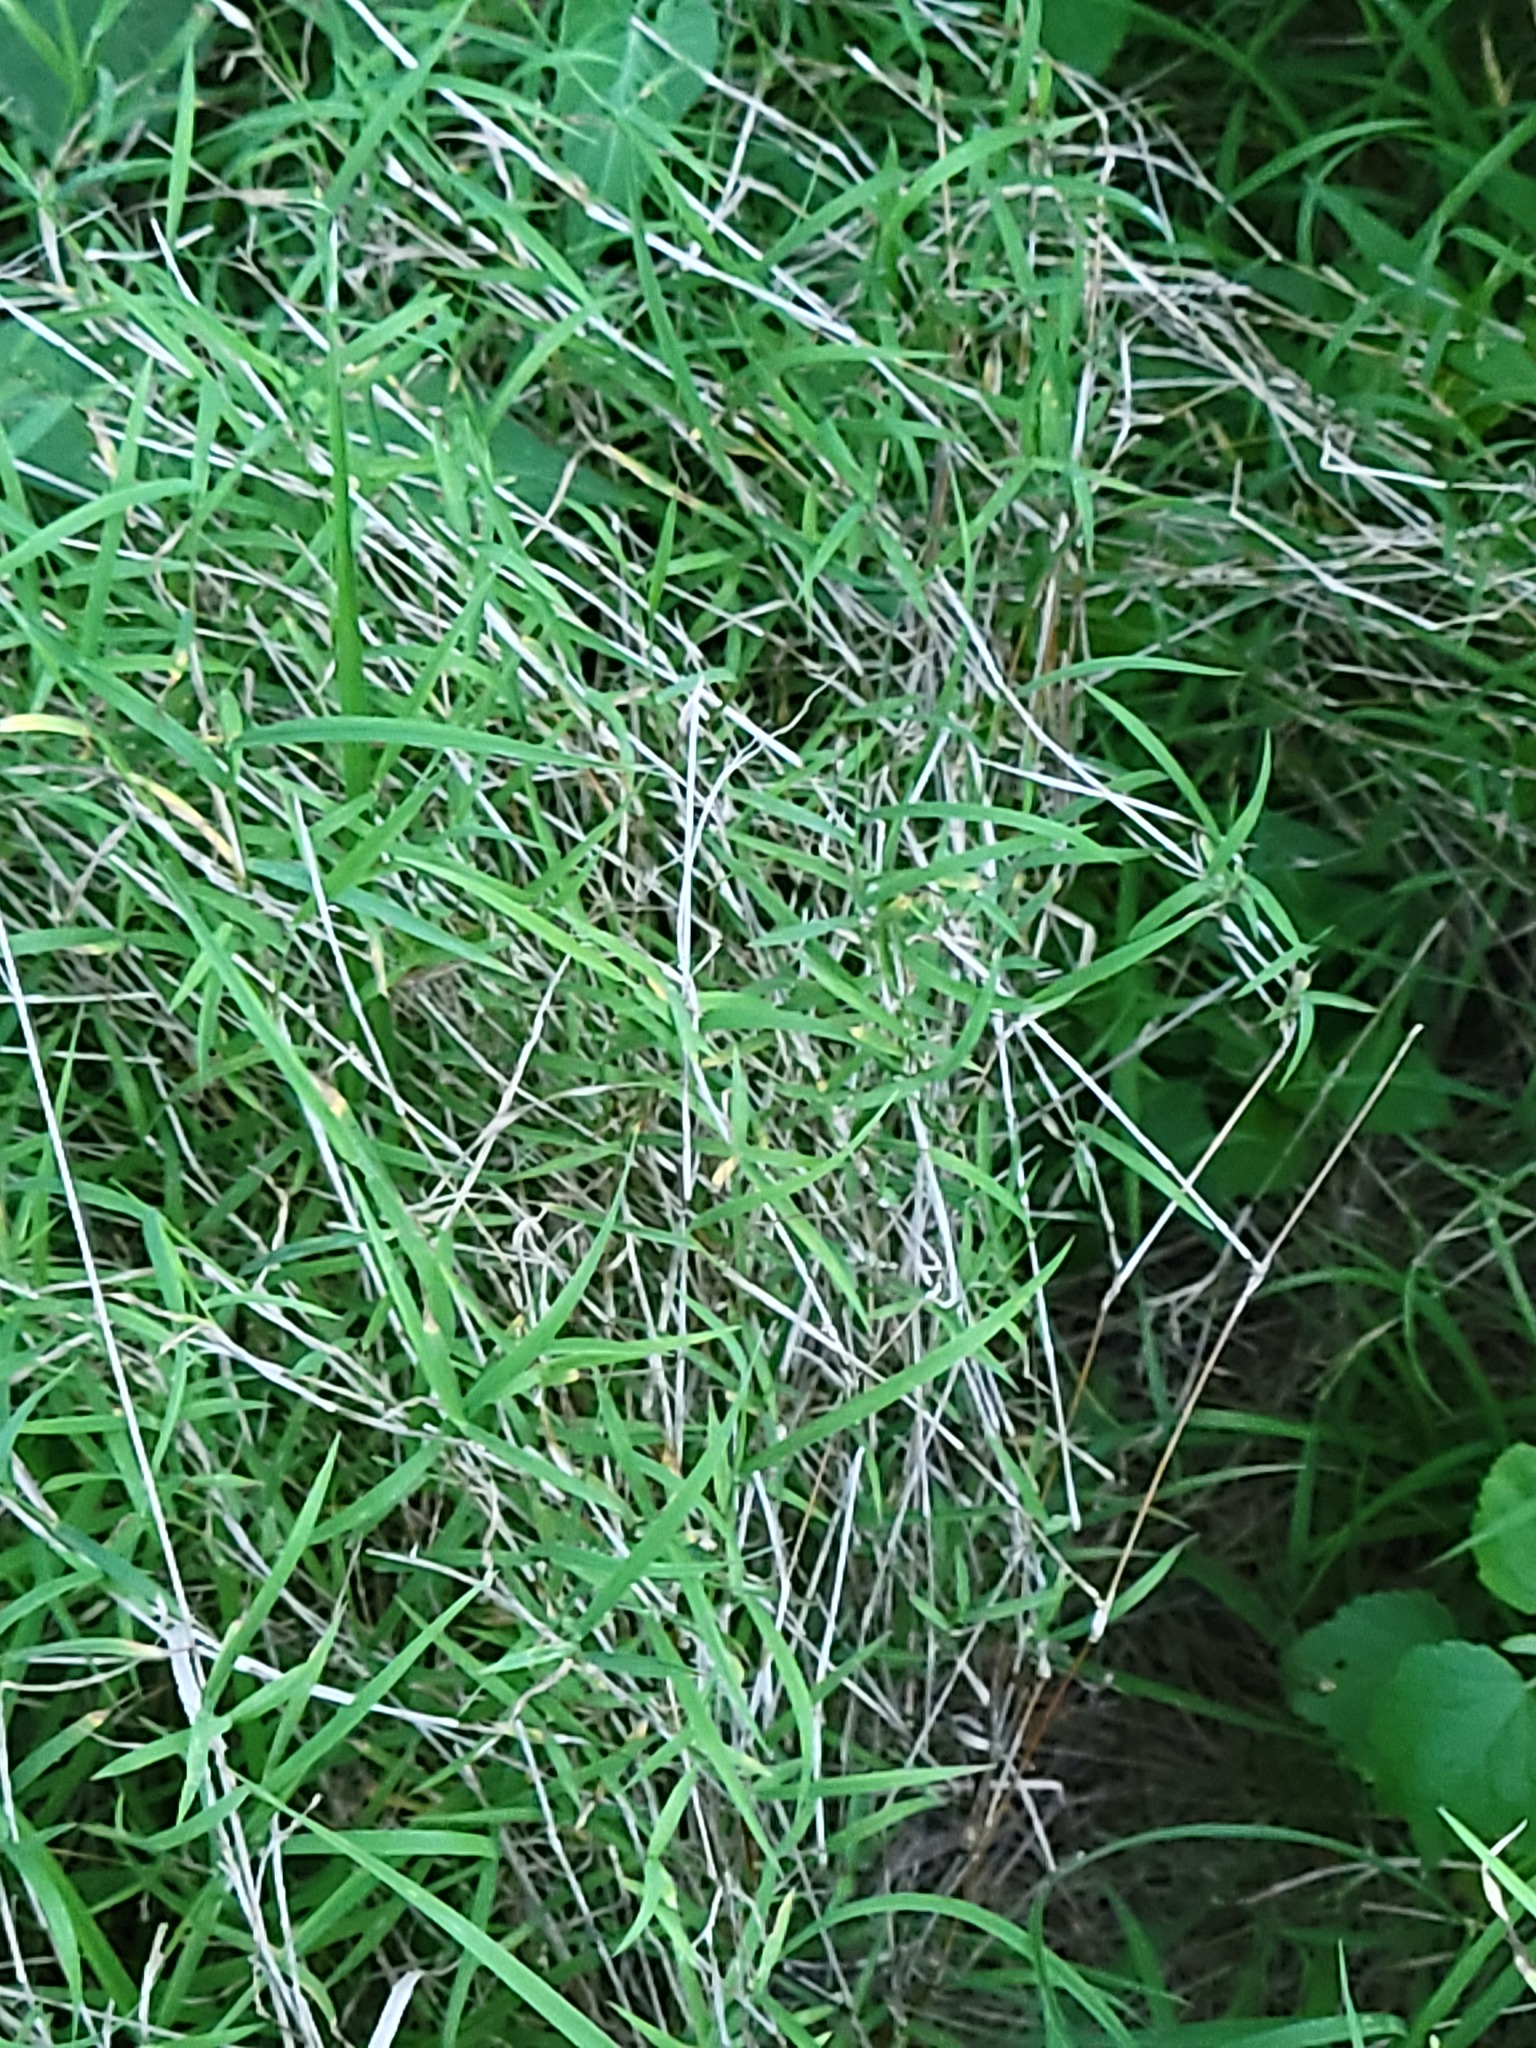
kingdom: Plantae
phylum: Tracheophyta
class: Liliopsida
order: Poales
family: Poaceae
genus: Cynodon
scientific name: Cynodon dactylon
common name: Bermuda grass
